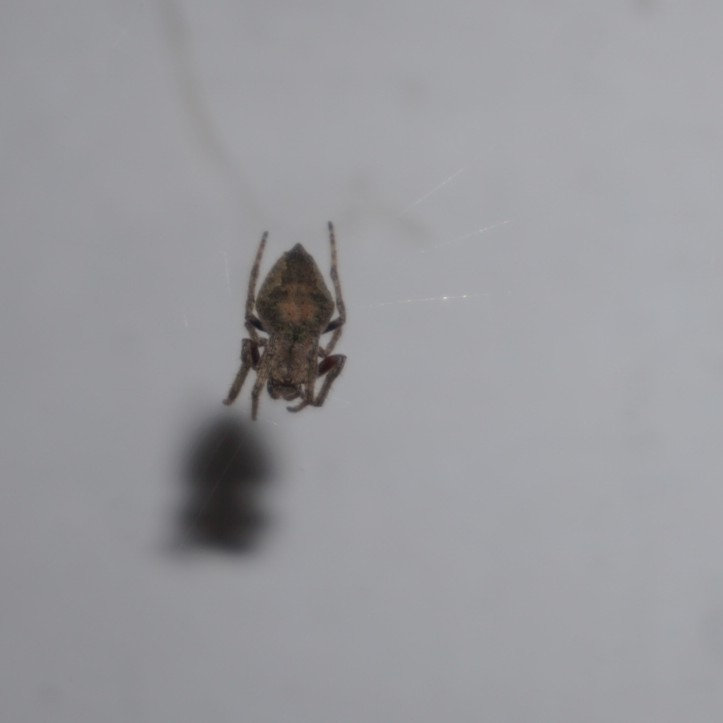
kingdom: Animalia
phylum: Arthropoda
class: Arachnida
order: Araneae
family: Araneidae
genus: Eriophora
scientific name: Eriophora pustulosa
